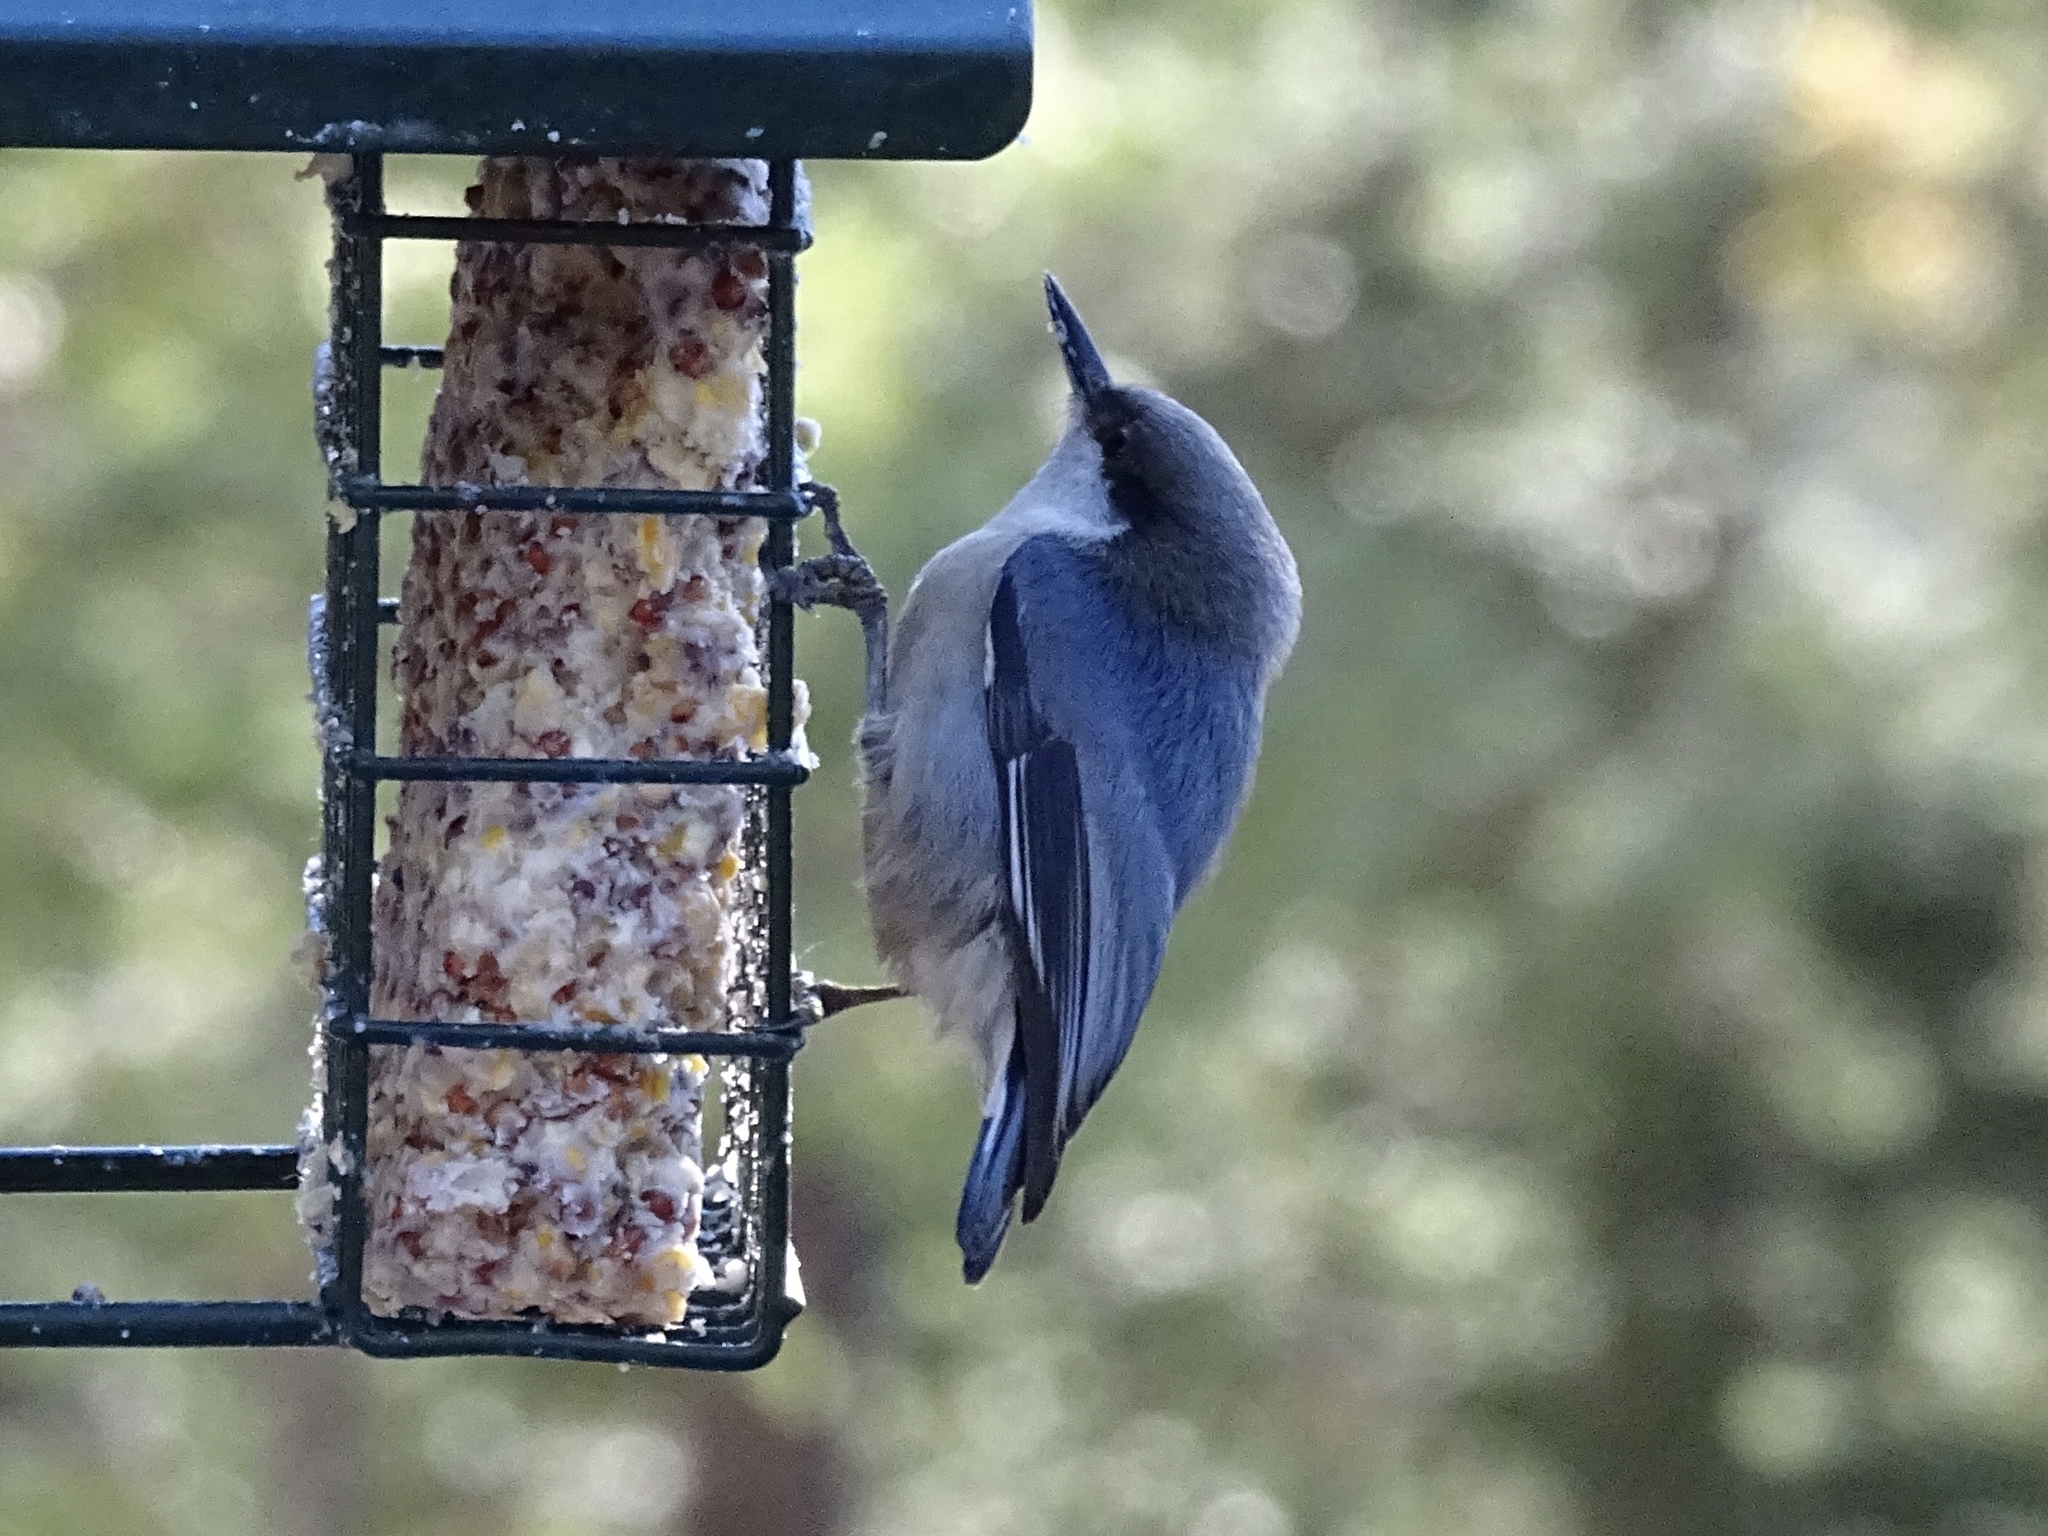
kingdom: Animalia
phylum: Chordata
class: Aves
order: Passeriformes
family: Sittidae
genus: Sitta
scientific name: Sitta pygmaea
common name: Pygmy nuthatch
